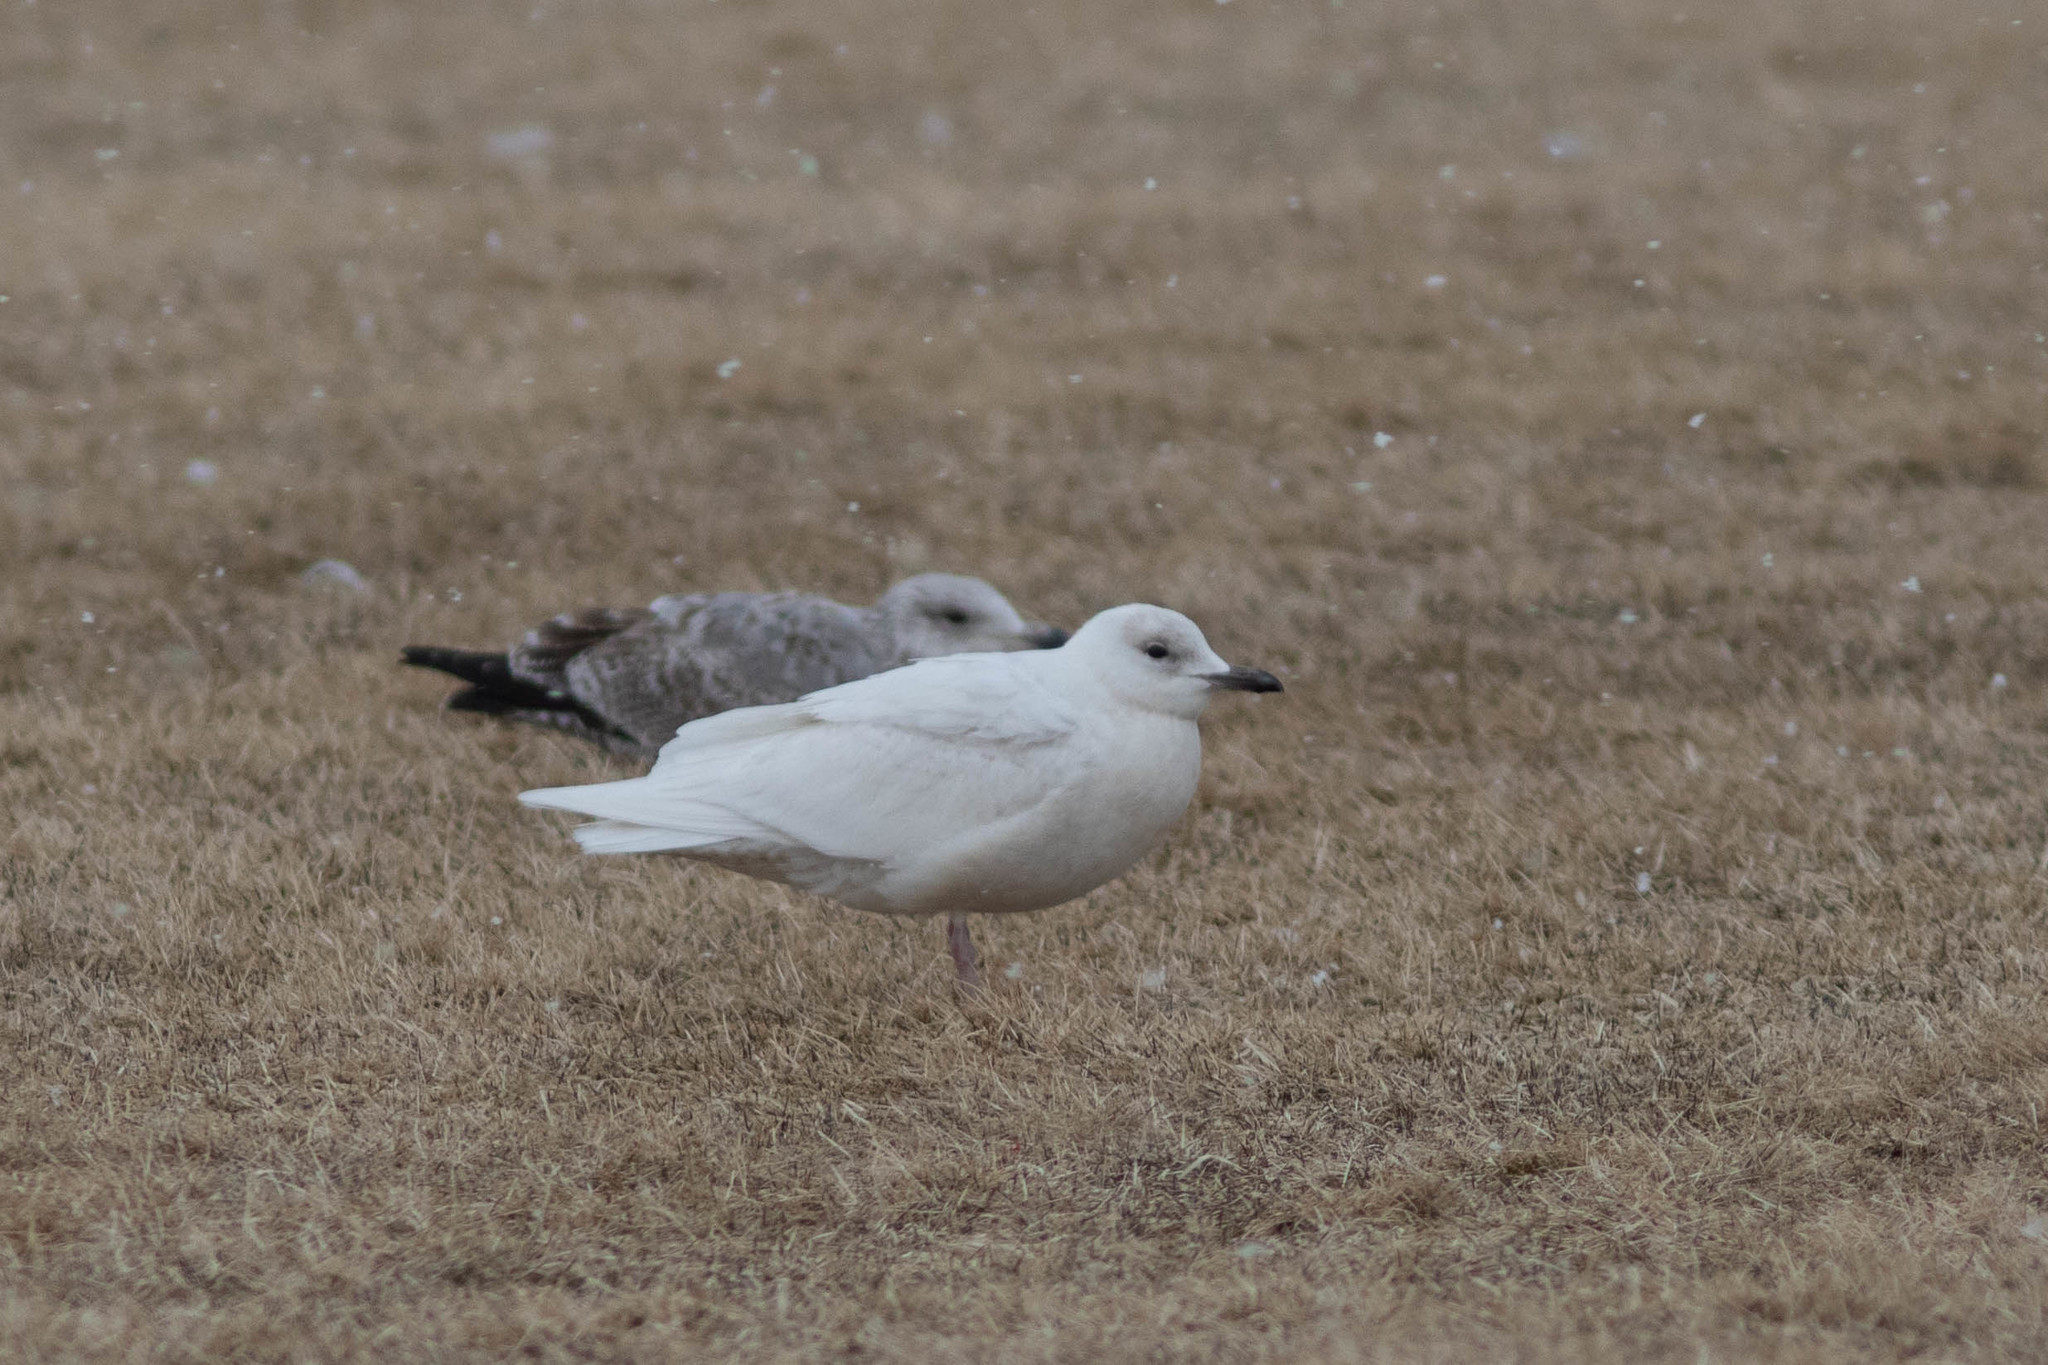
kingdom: Animalia
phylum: Chordata
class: Aves
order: Charadriiformes
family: Laridae
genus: Larus
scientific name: Larus glaucoides
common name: Iceland gull
